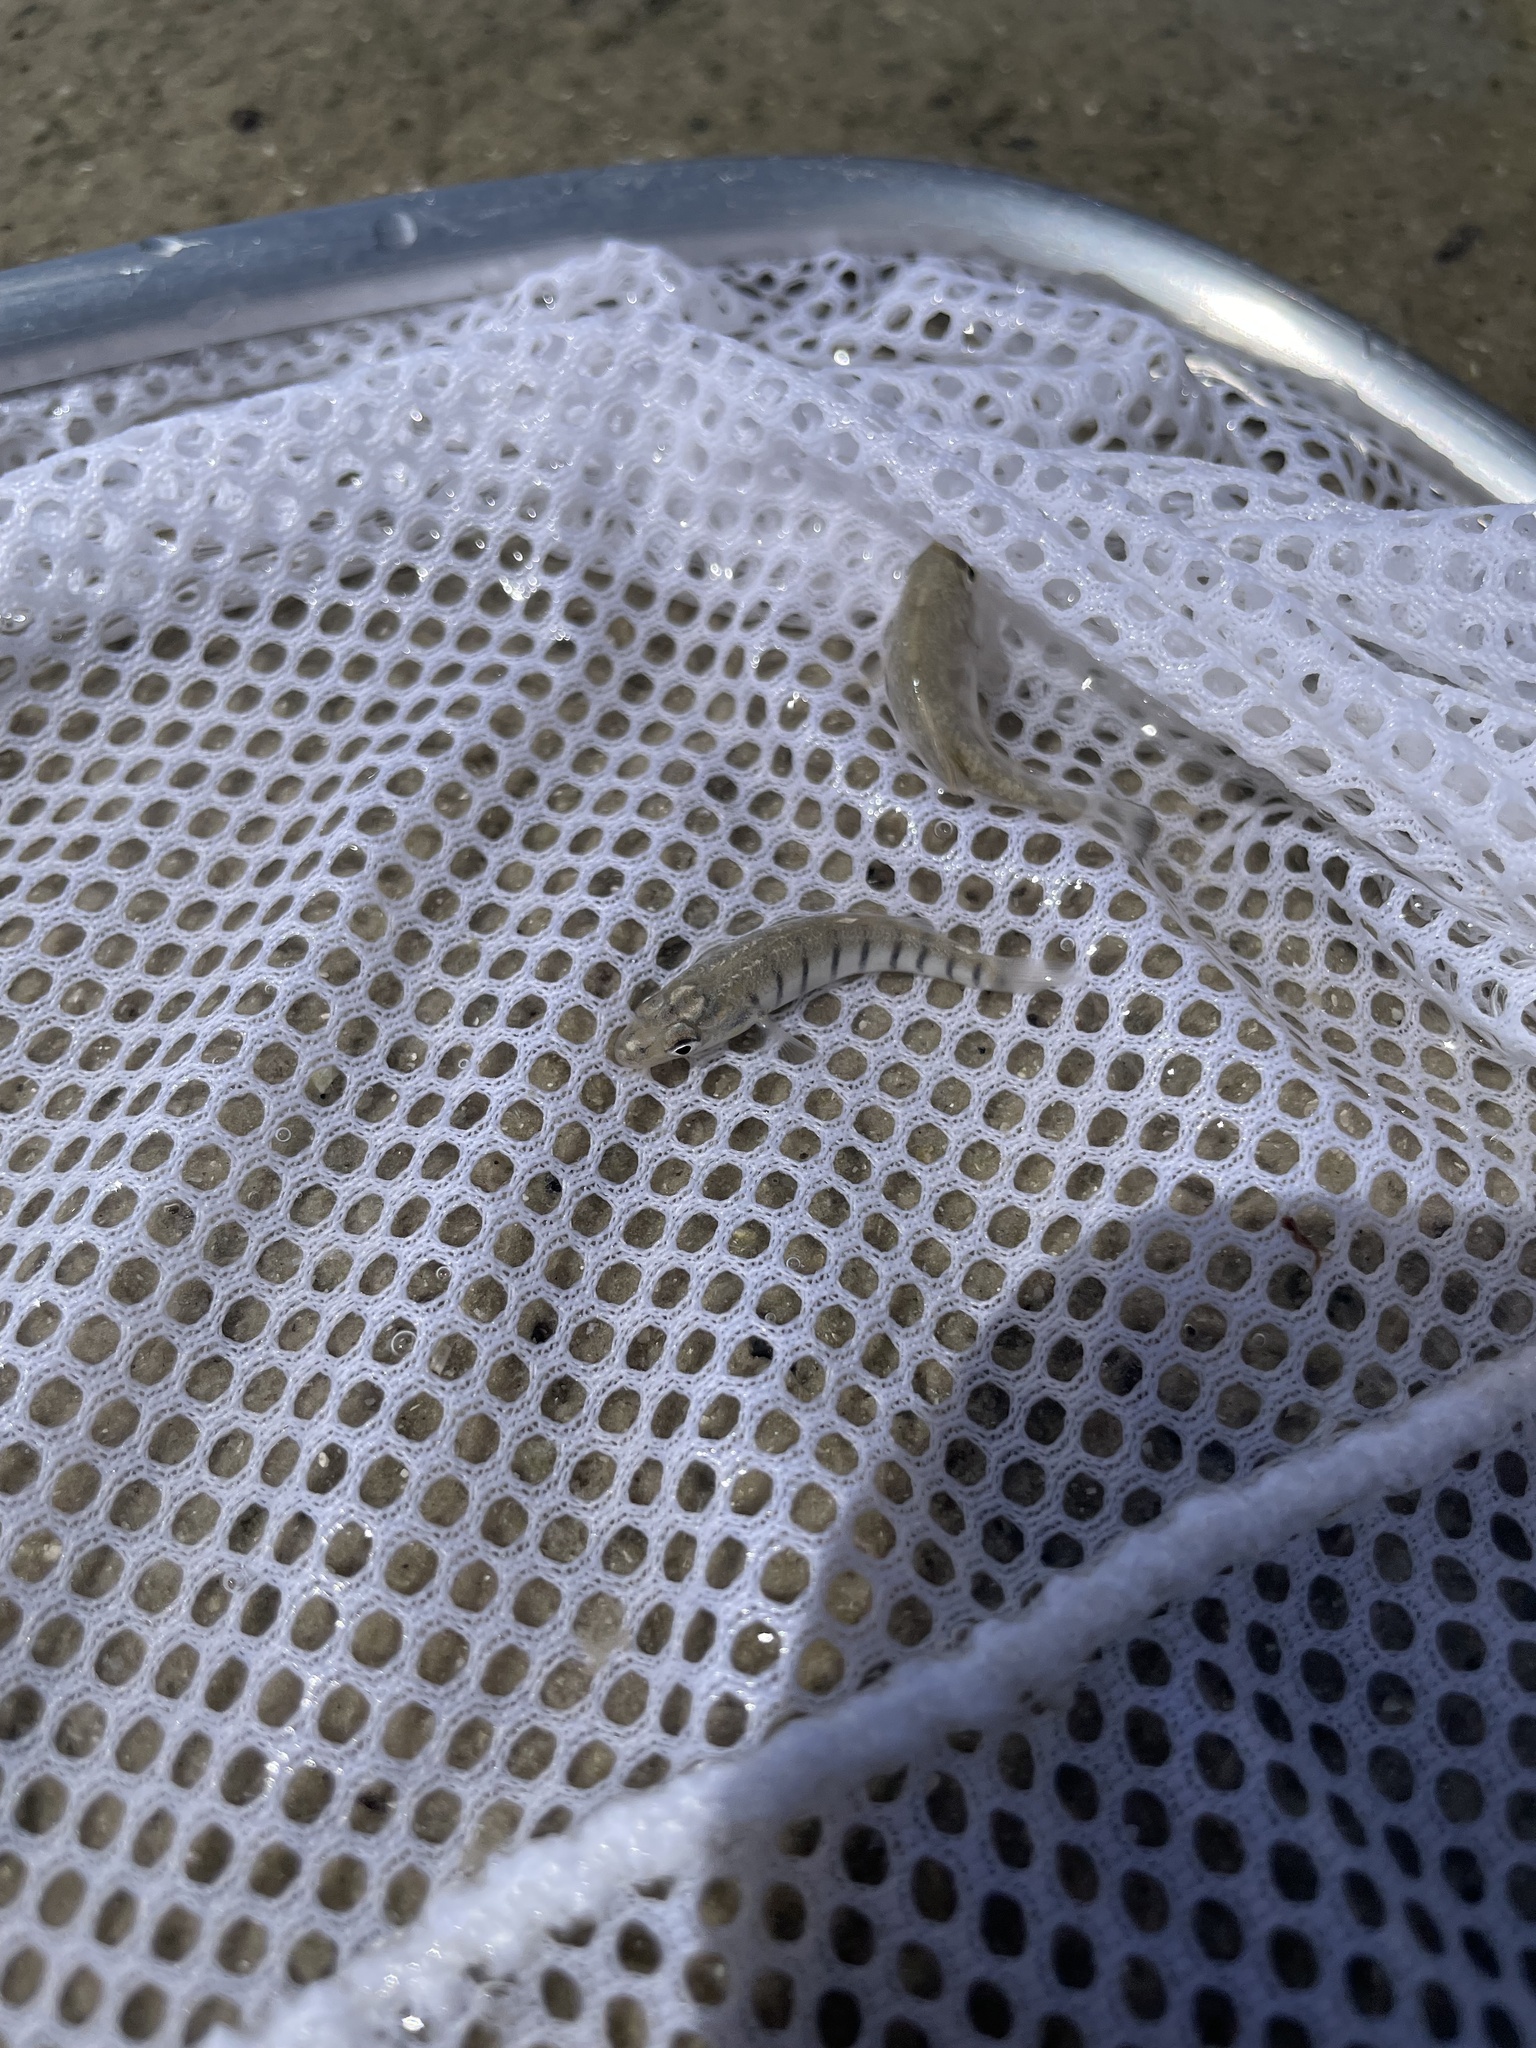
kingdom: Animalia
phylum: Chordata
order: Cyprinodontiformes
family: Fundulidae
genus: Fundulus
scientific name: Fundulus similis
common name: Longnose killifish
